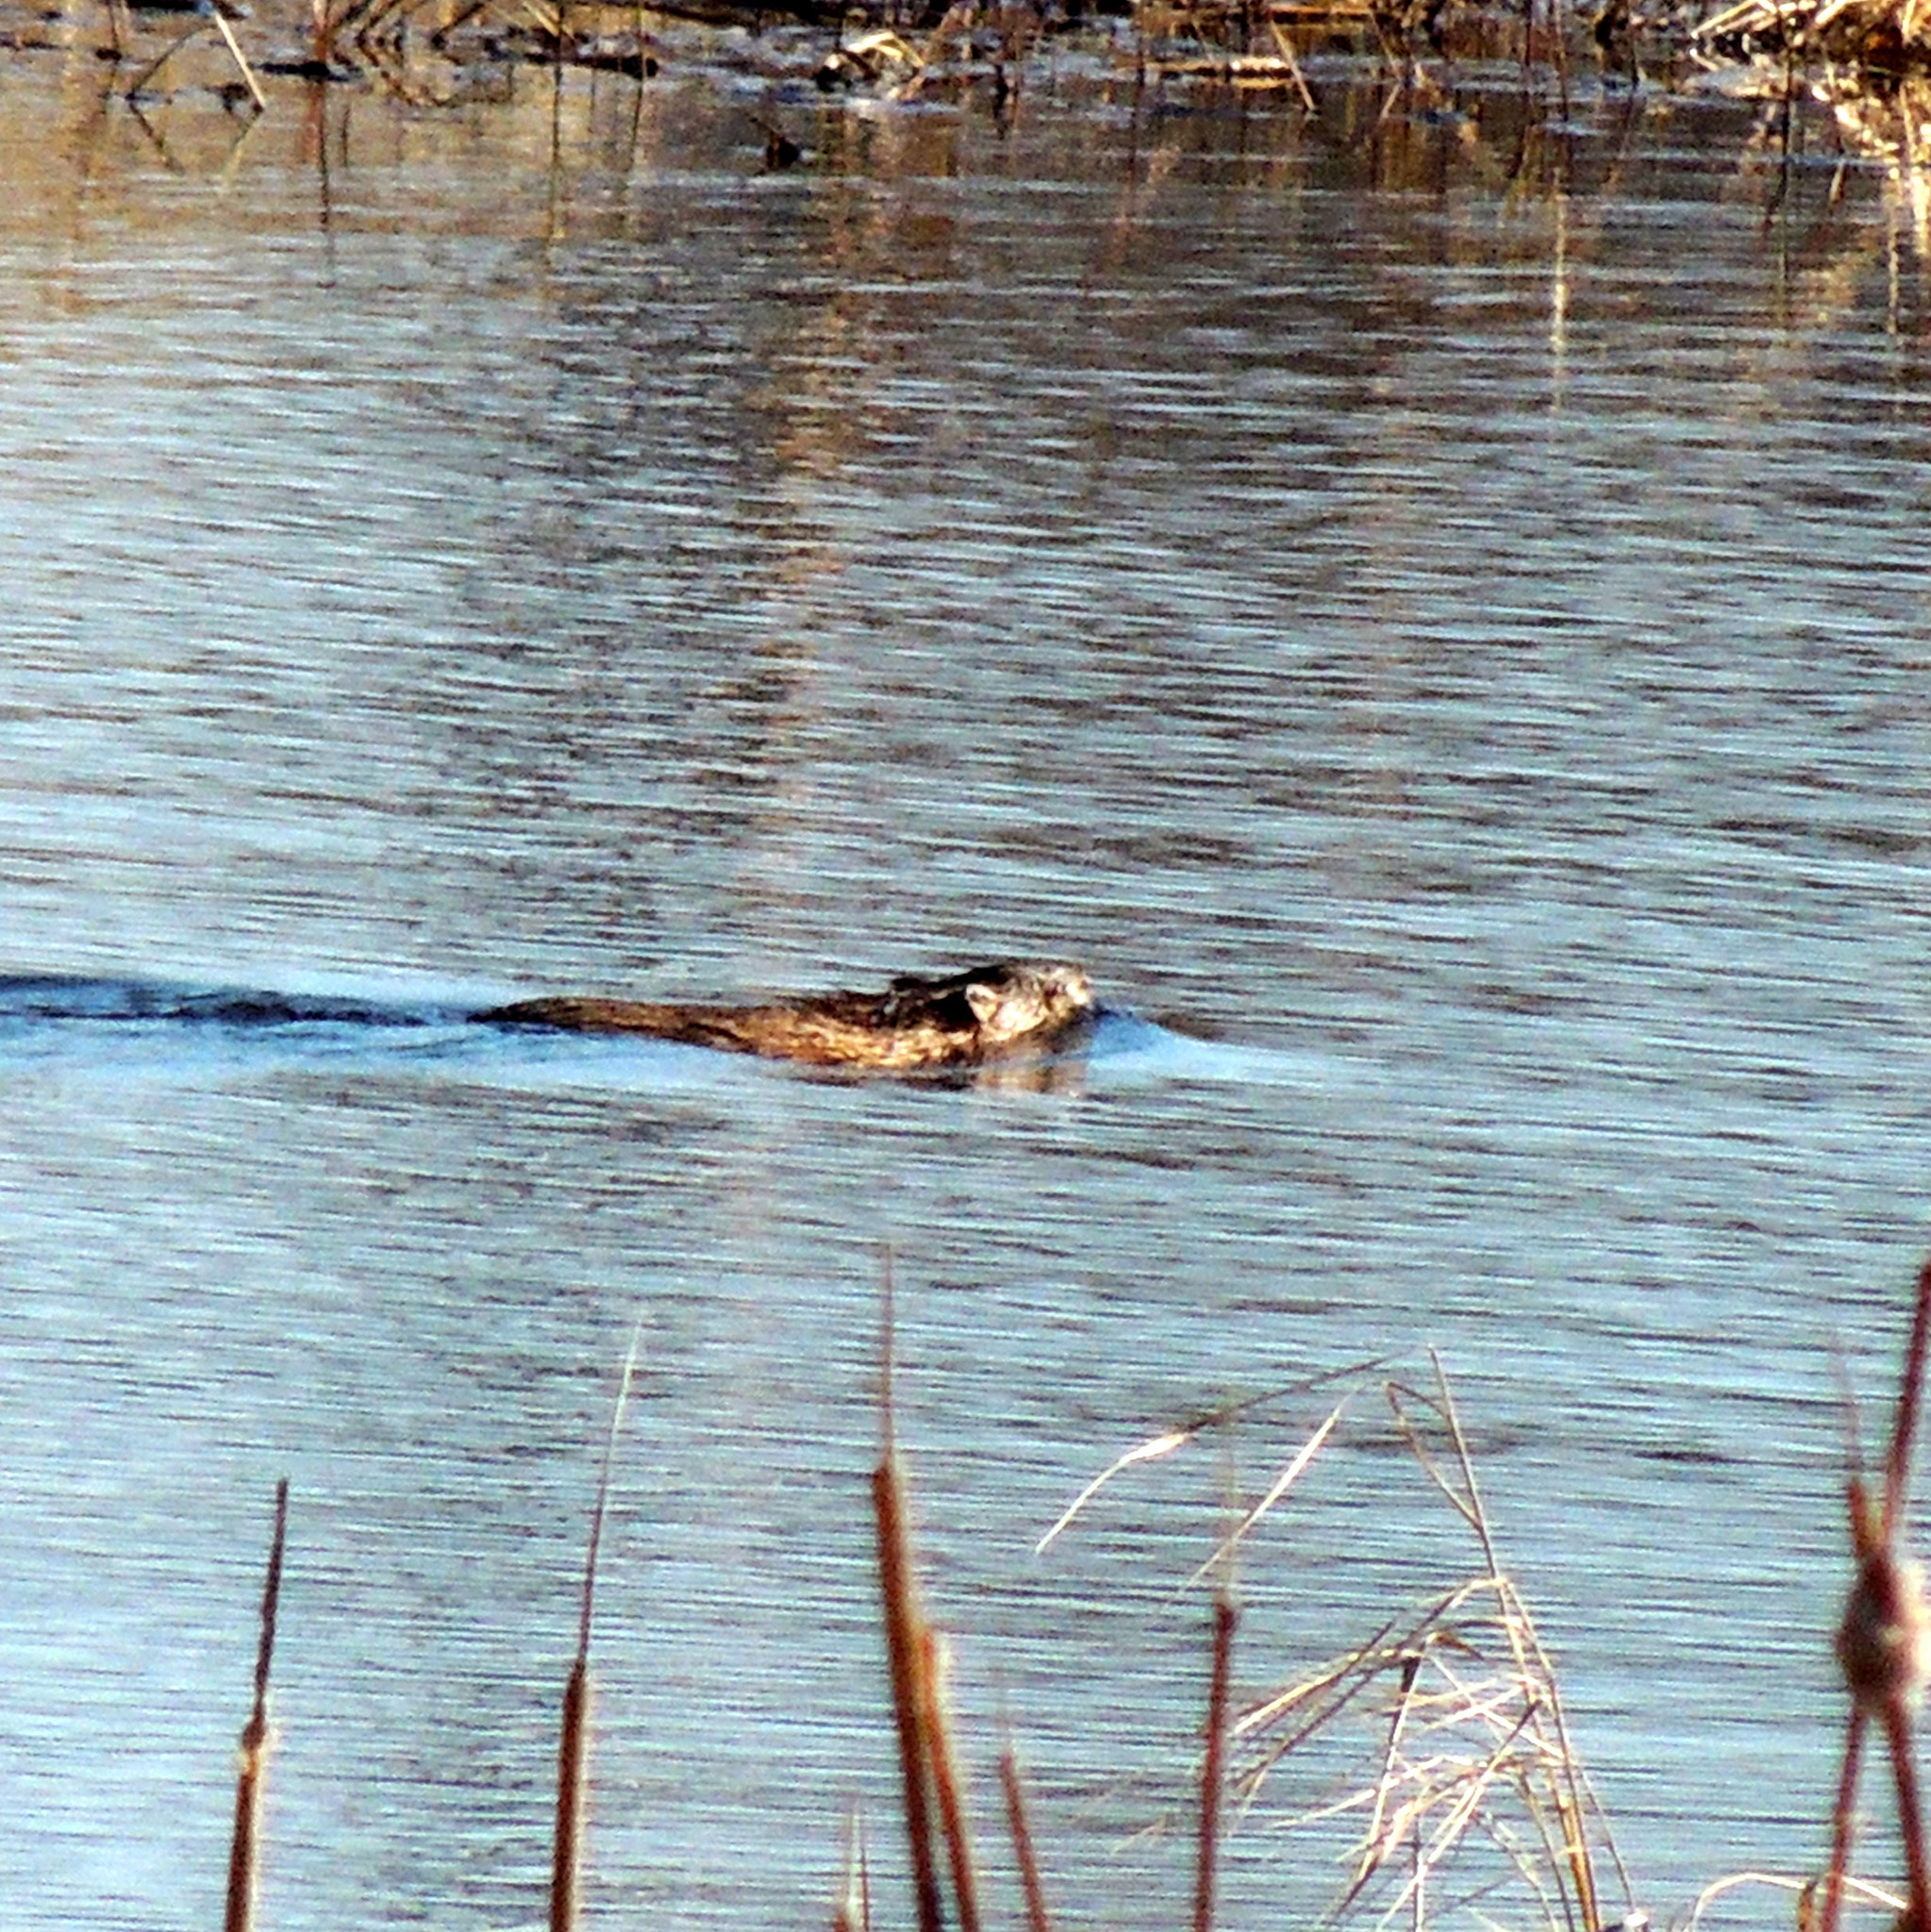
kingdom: Animalia
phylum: Chordata
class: Mammalia
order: Rodentia
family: Cricetidae
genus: Ondatra
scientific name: Ondatra zibethicus
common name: Muskrat
